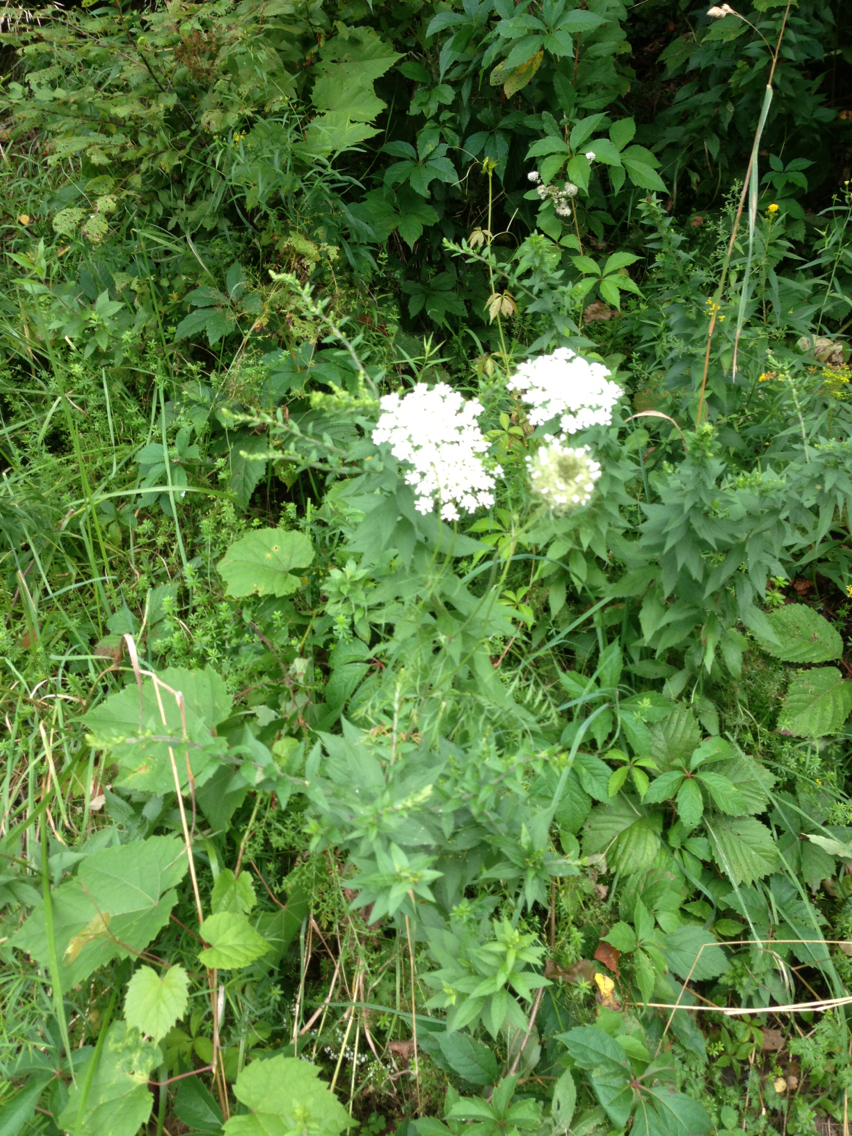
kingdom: Plantae
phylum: Tracheophyta
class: Magnoliopsida
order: Apiales
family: Apiaceae
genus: Daucus
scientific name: Daucus carota
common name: Wild carrot
